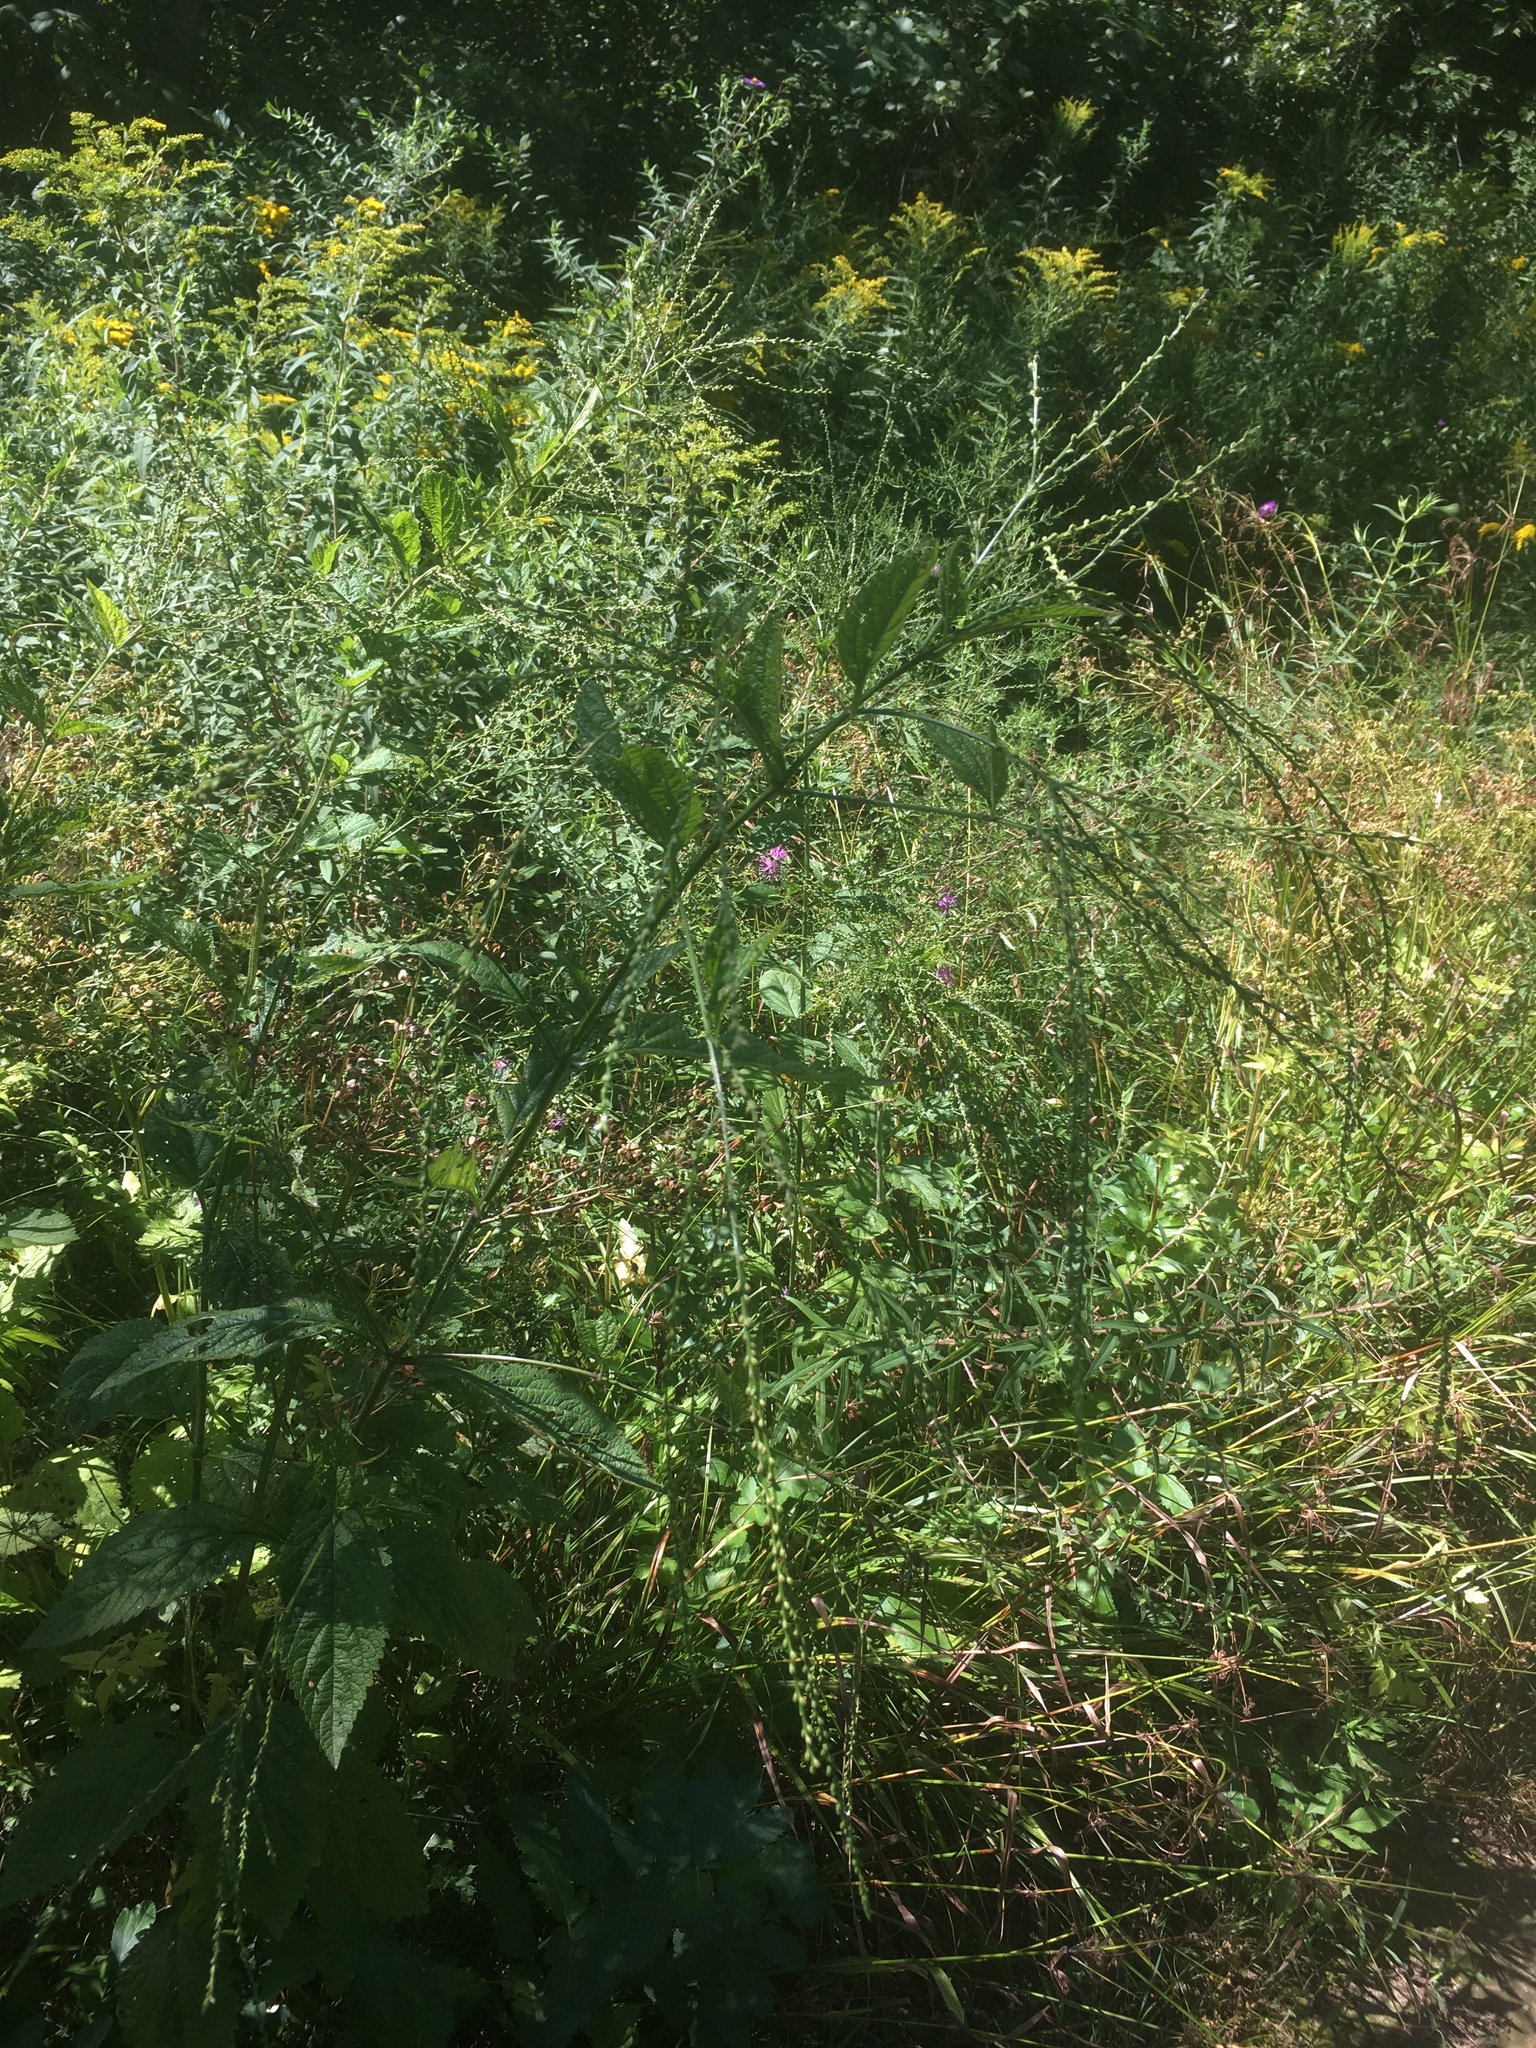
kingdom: Plantae
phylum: Tracheophyta
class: Magnoliopsida
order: Lamiales
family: Verbenaceae
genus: Verbena
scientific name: Verbena urticifolia
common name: Nettle-leaved vervain
